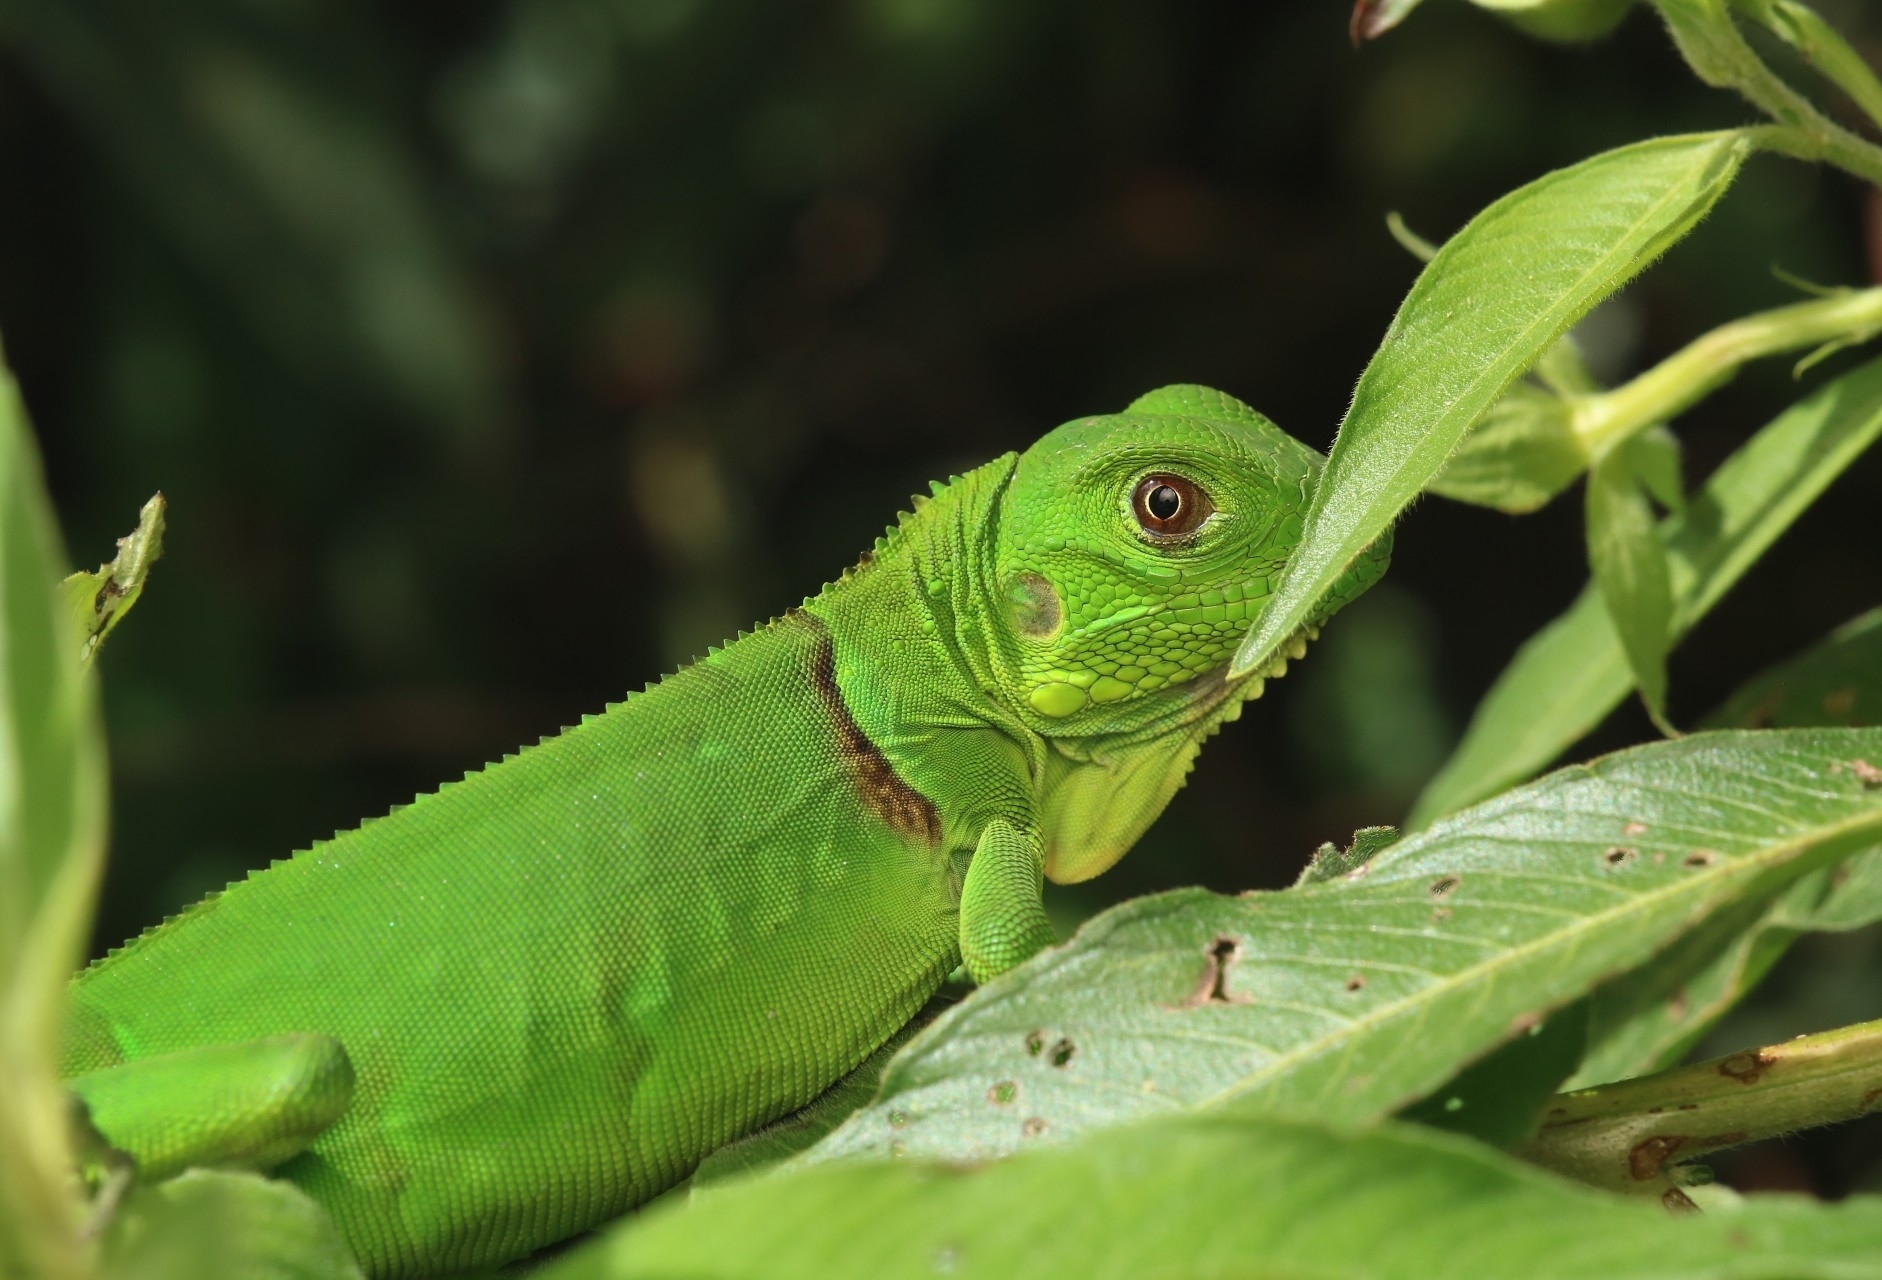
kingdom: Animalia
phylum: Chordata
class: Squamata
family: Iguanidae
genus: Iguana
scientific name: Iguana iguana
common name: Green iguana
